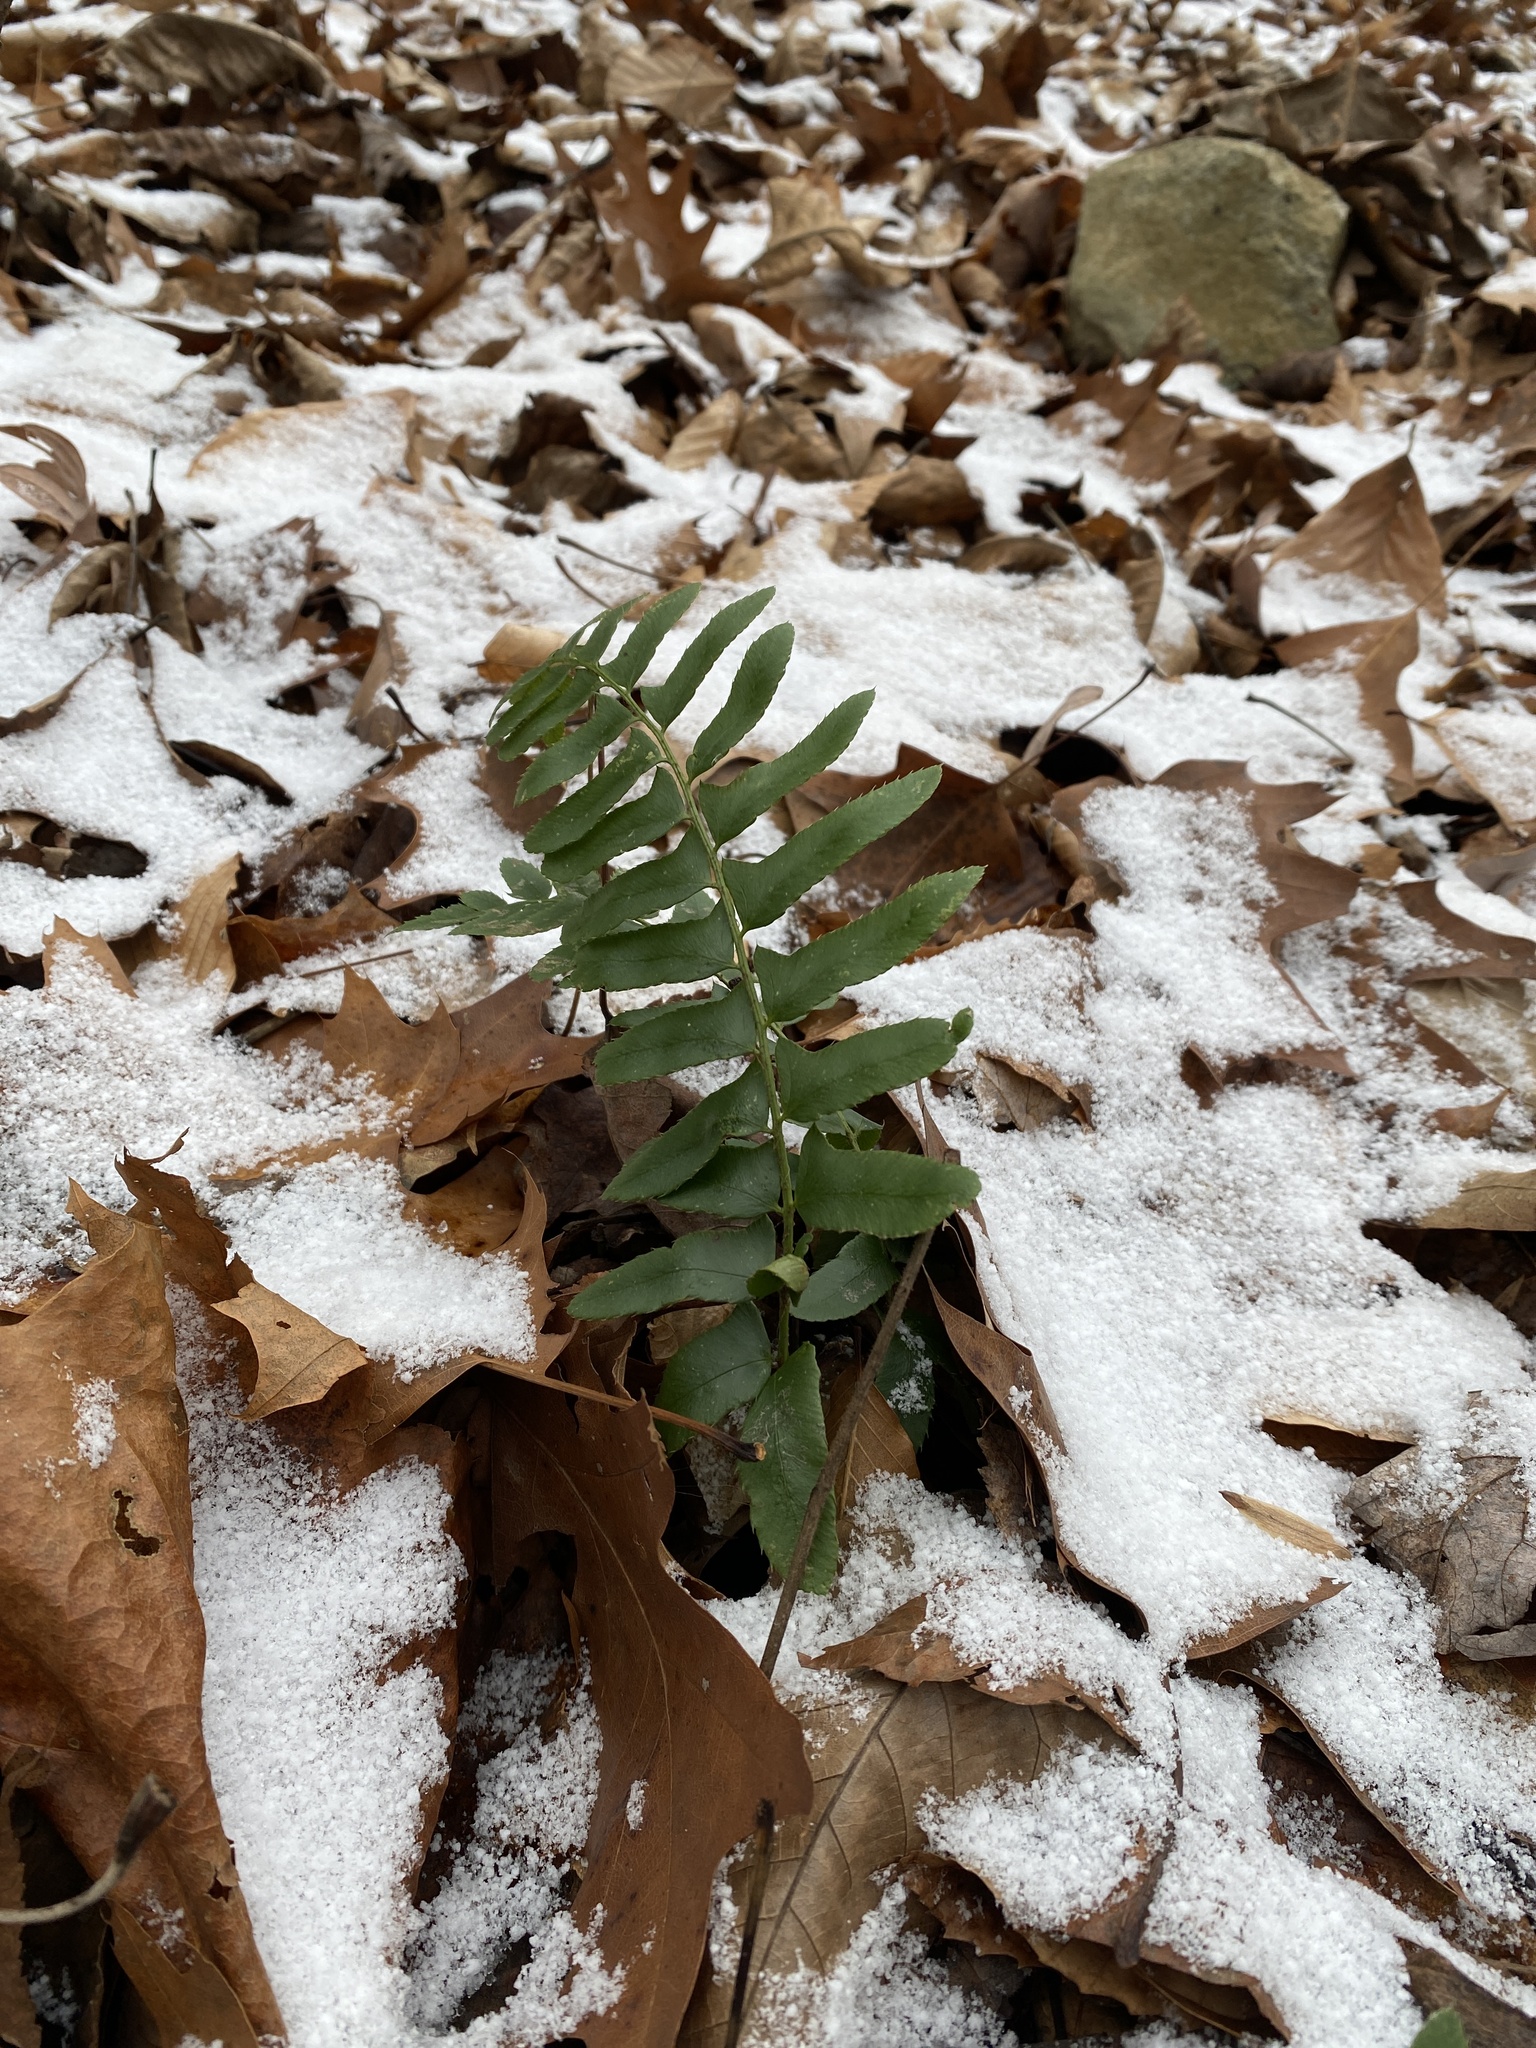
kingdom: Plantae
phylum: Tracheophyta
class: Polypodiopsida
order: Polypodiales
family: Dryopteridaceae
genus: Polystichum
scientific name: Polystichum acrostichoides
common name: Christmas fern
